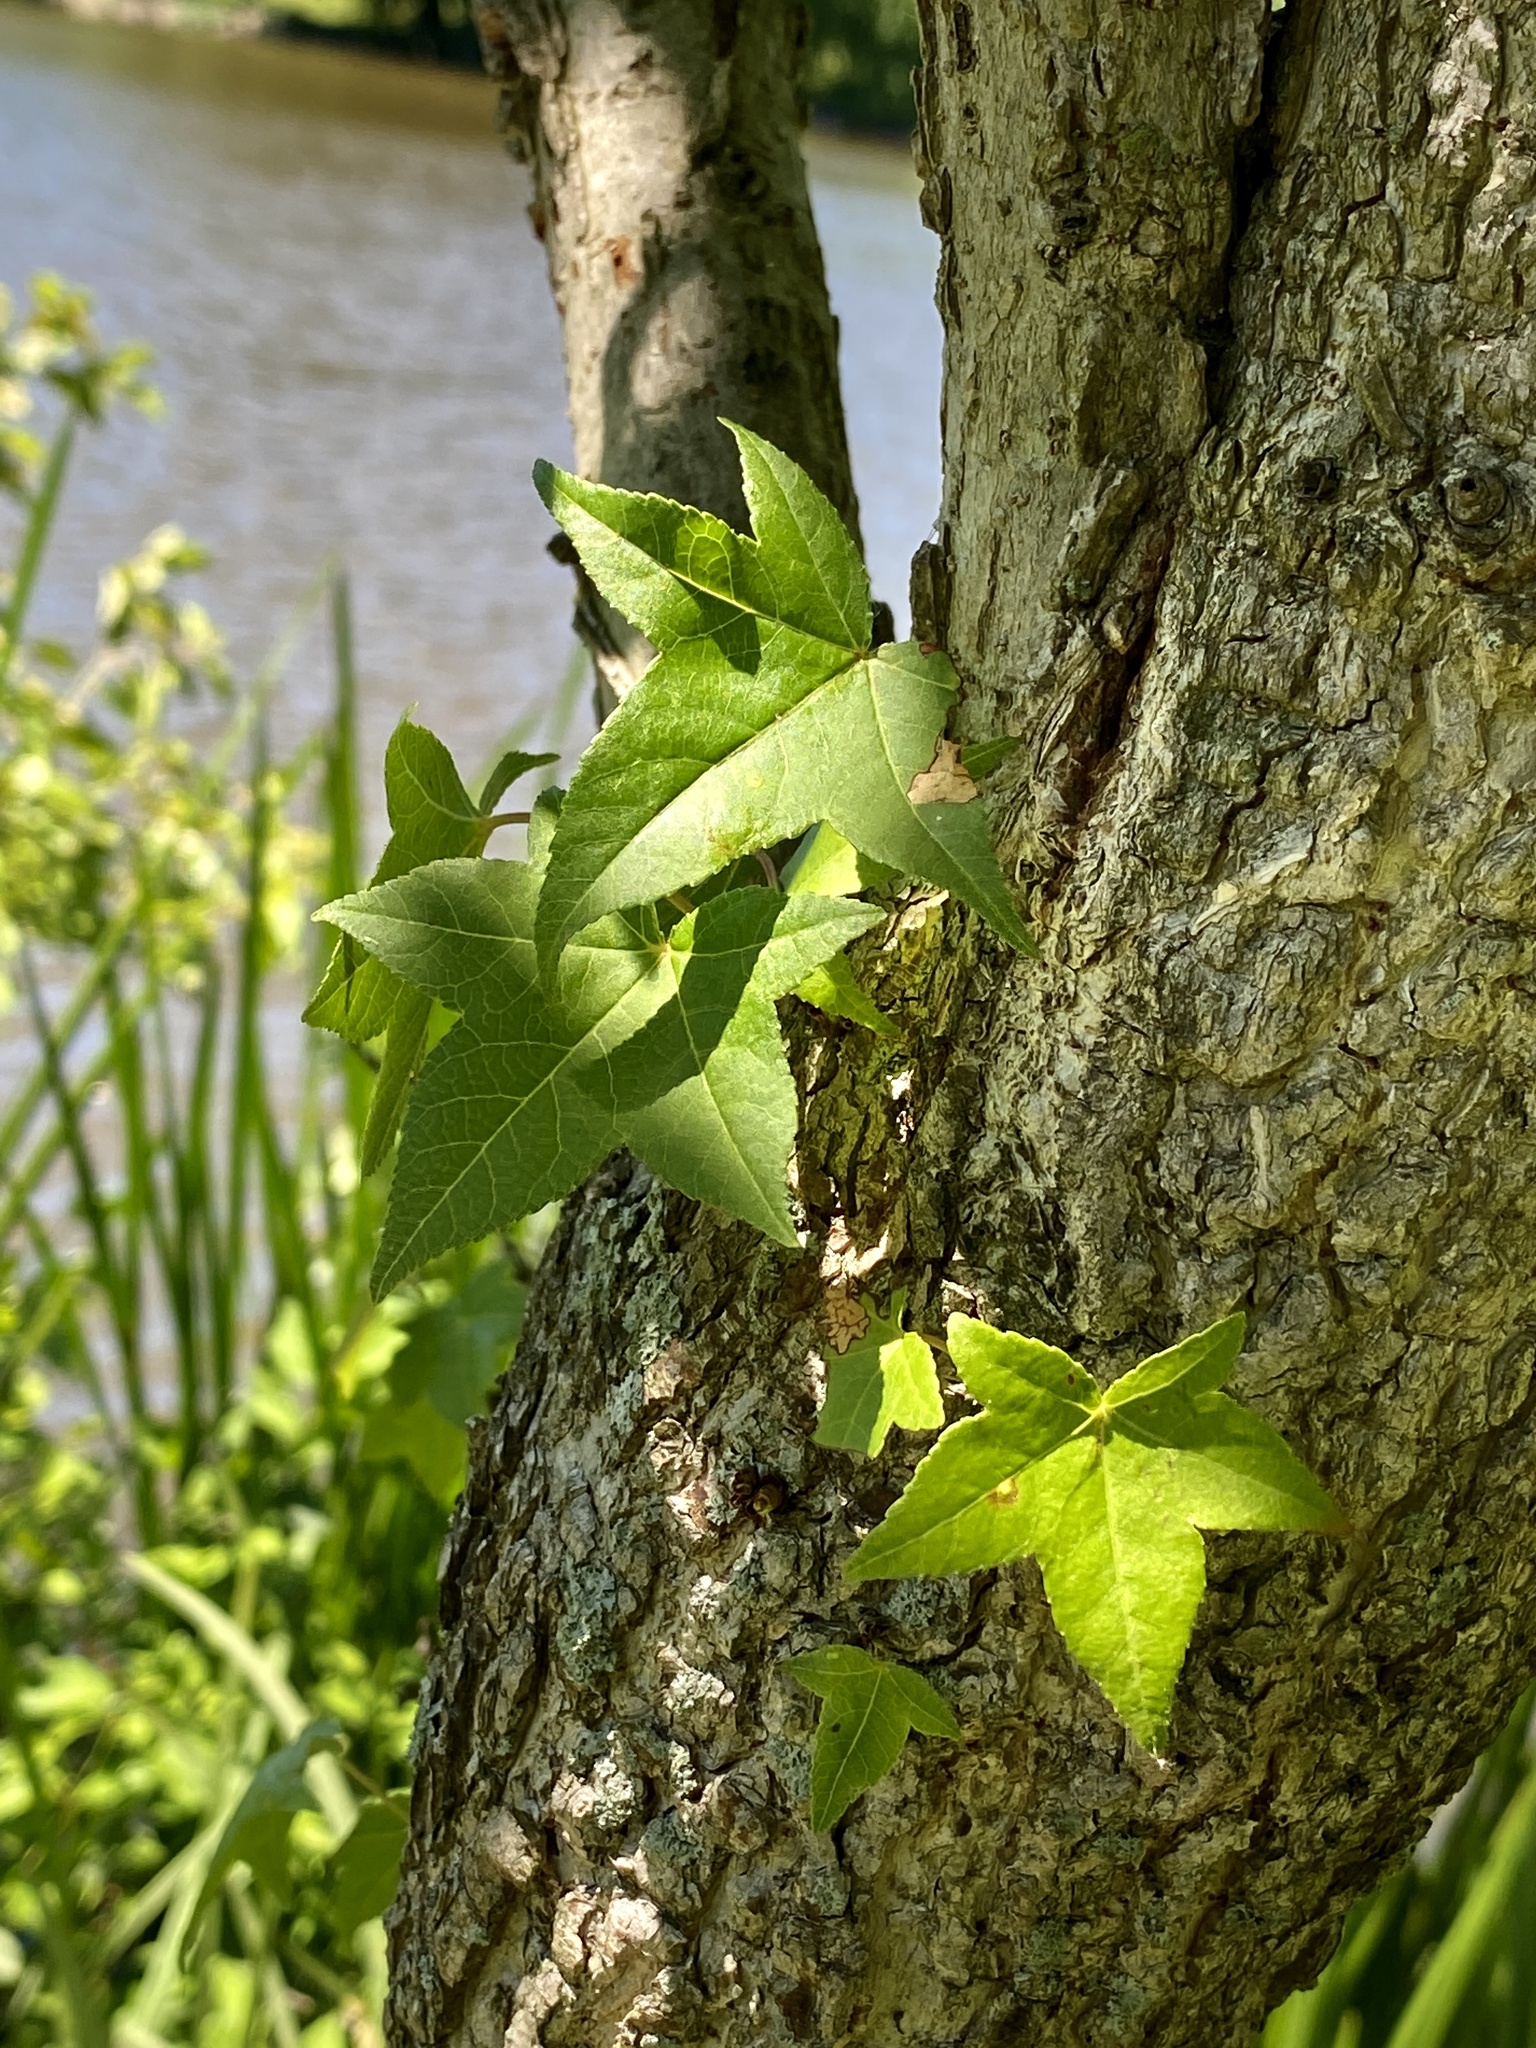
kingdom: Plantae
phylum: Tracheophyta
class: Magnoliopsida
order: Saxifragales
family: Altingiaceae
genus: Liquidambar
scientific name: Liquidambar styraciflua
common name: Sweet gum
